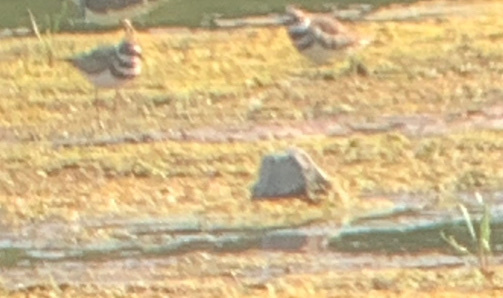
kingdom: Animalia
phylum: Chordata
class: Aves
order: Charadriiformes
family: Charadriidae
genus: Charadrius
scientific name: Charadrius vociferus
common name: Killdeer
